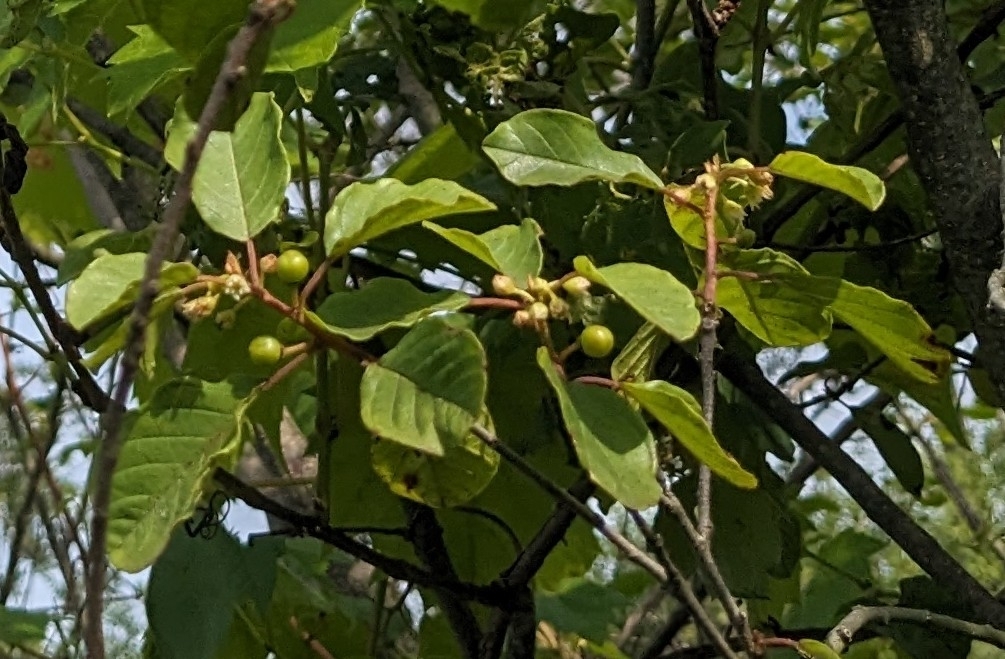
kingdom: Plantae
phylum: Tracheophyta
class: Magnoliopsida
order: Rosales
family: Rhamnaceae
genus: Frangula
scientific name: Frangula alnus
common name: Alder buckthorn
